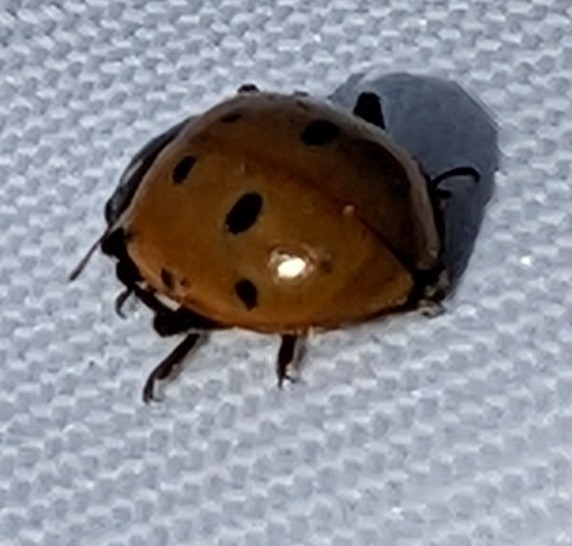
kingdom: Animalia
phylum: Arthropoda
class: Insecta
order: Coleoptera
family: Coccinellidae
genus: Hippodamia
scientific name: Hippodamia convergens
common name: Convergent lady beetle
